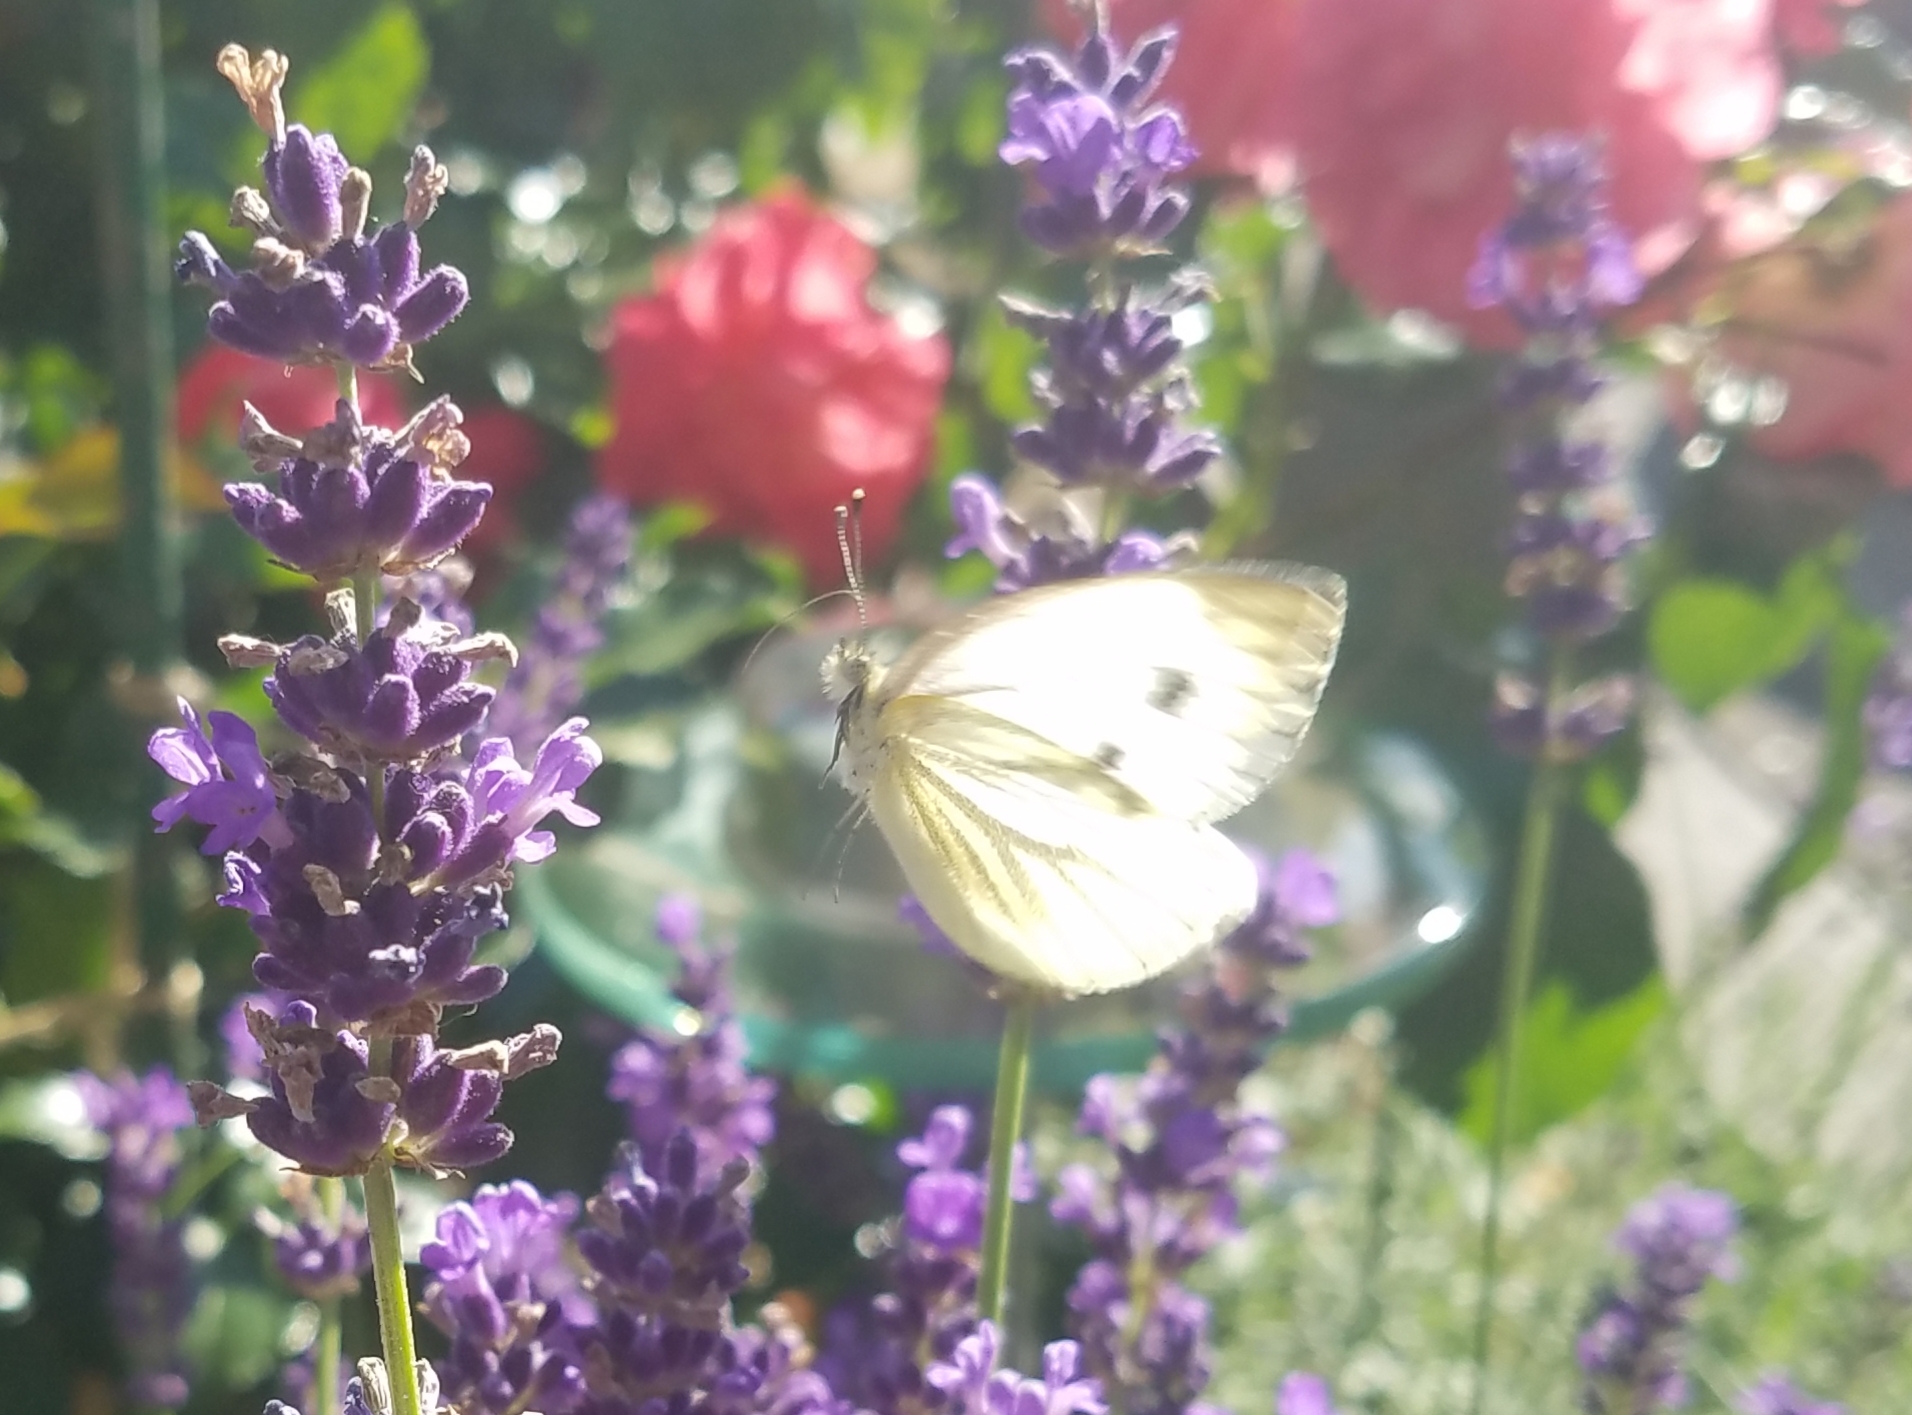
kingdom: Animalia
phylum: Arthropoda
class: Insecta
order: Lepidoptera
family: Pieridae
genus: Pieris
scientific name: Pieris napi
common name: Green-veined white
